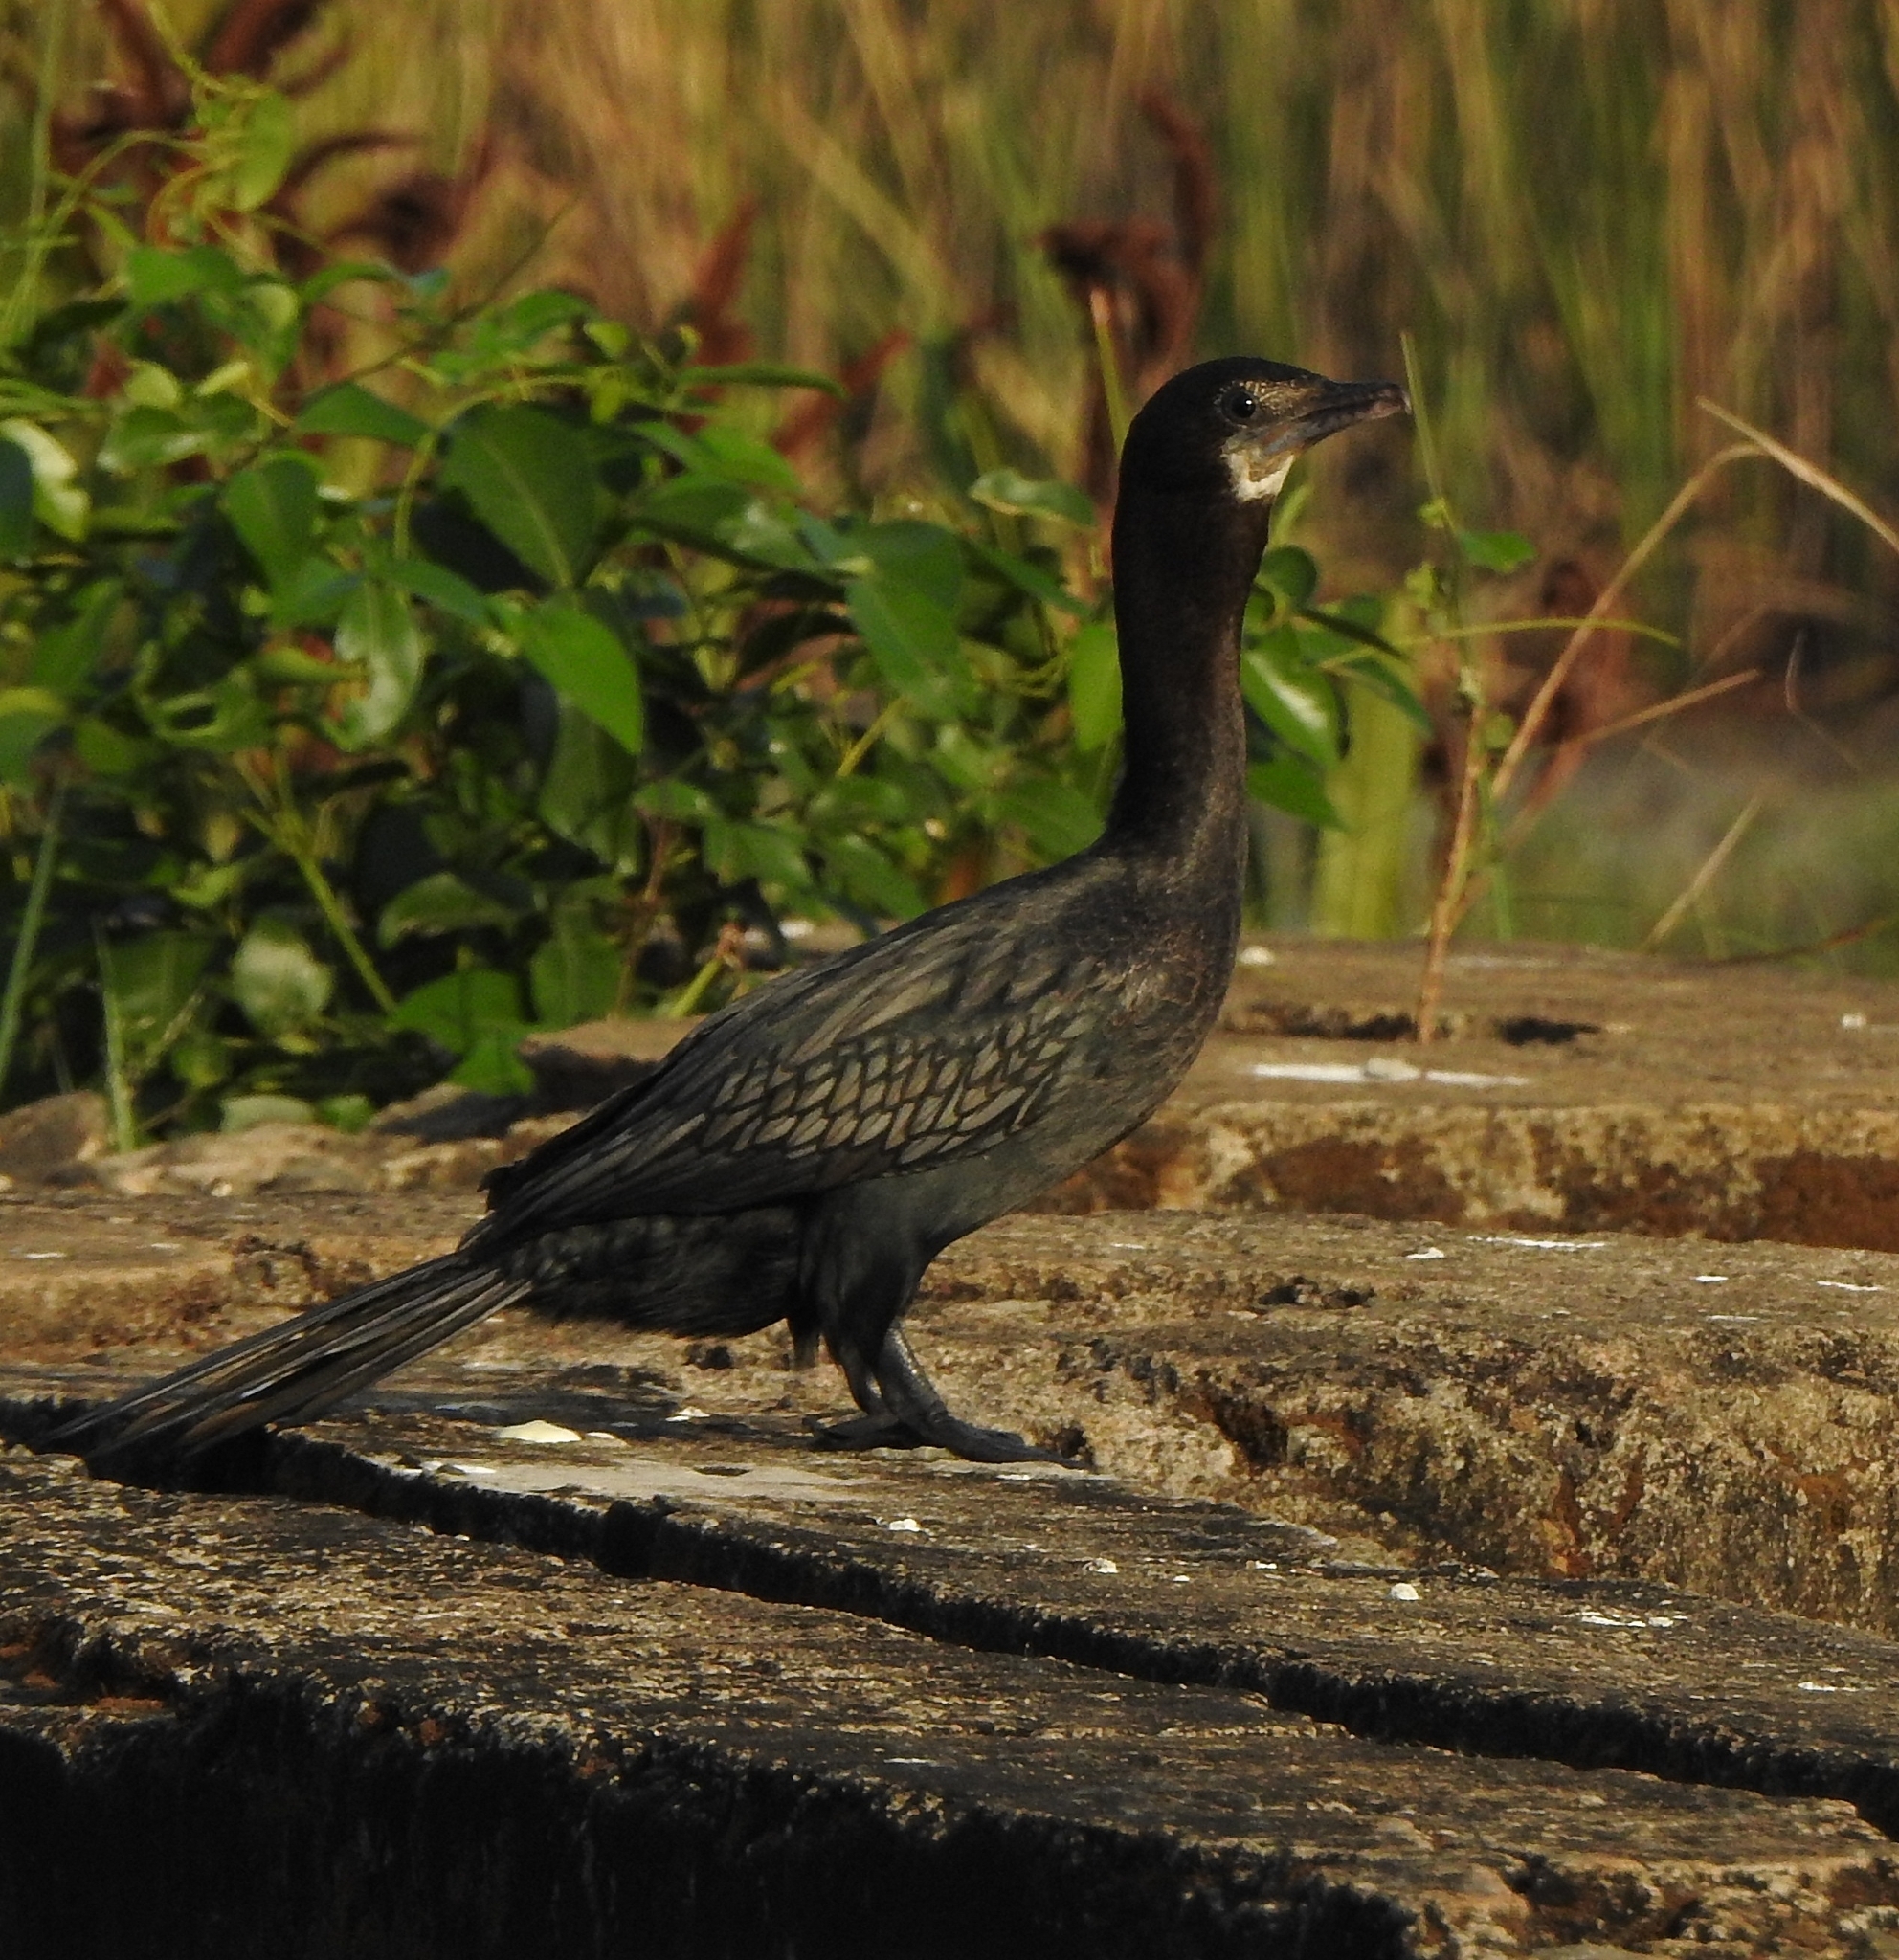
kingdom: Animalia
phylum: Chordata
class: Aves
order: Suliformes
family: Phalacrocoracidae
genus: Microcarbo
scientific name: Microcarbo niger
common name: Little cormorant
